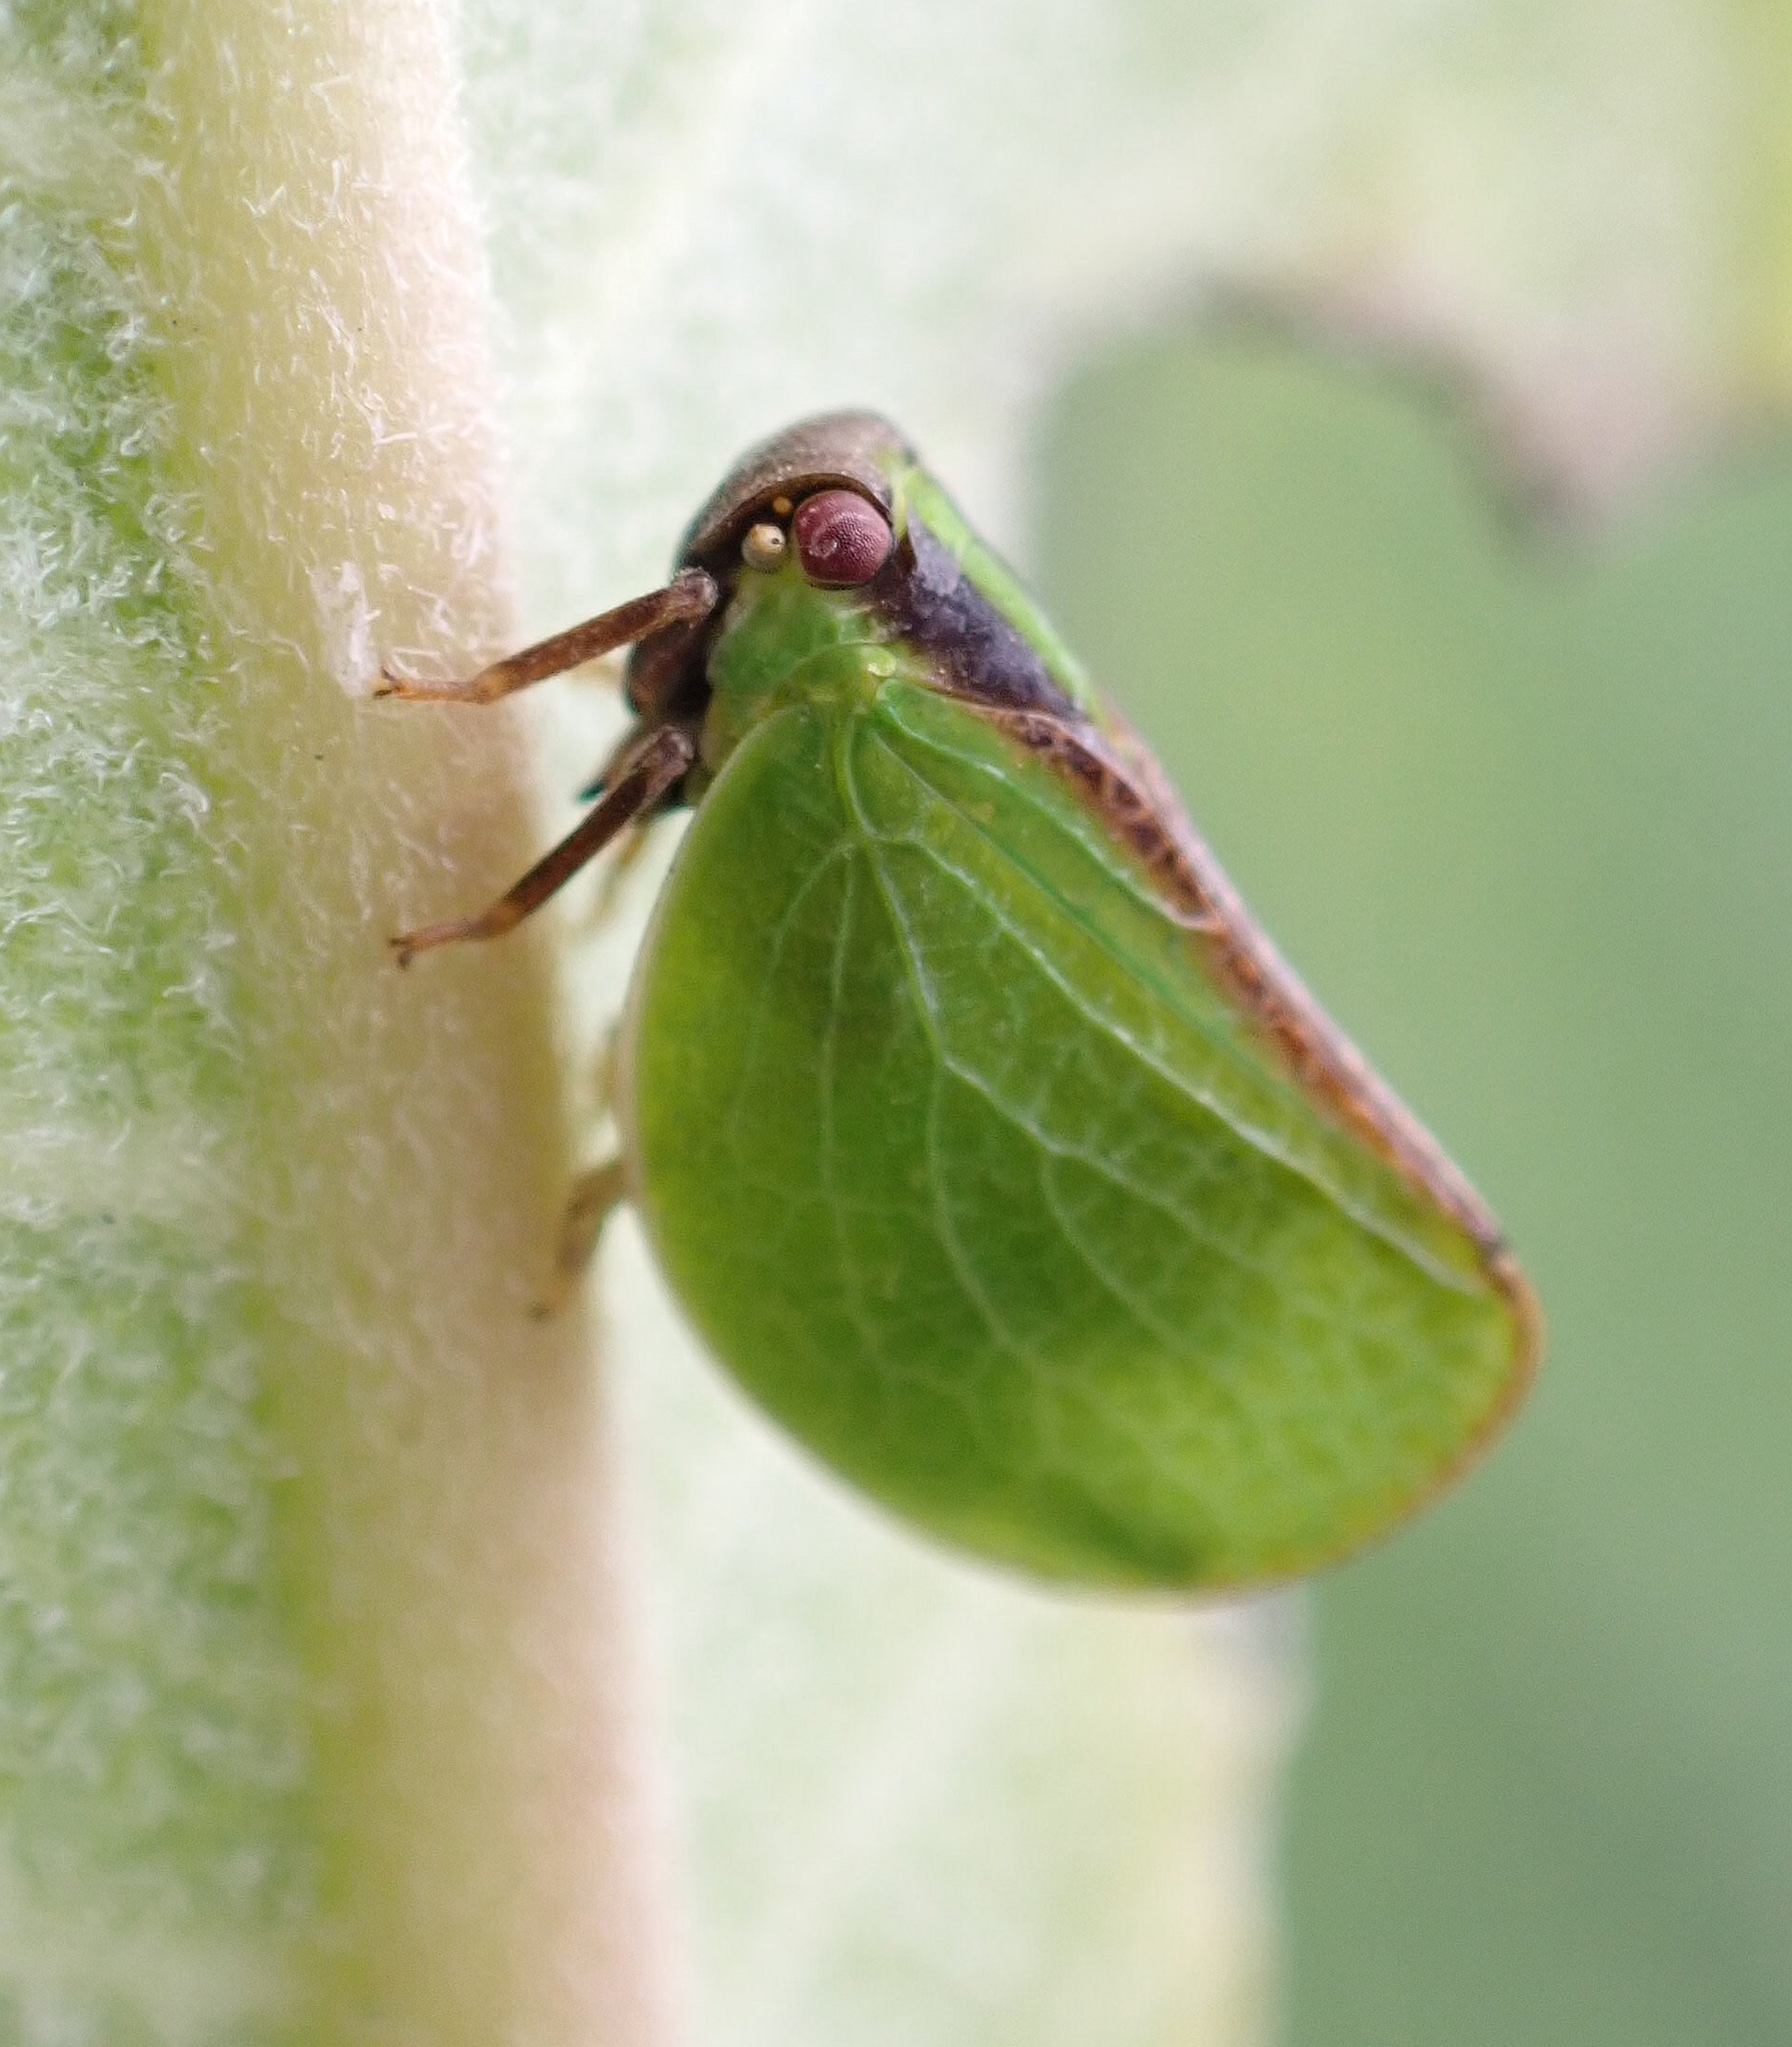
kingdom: Animalia
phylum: Arthropoda
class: Insecta
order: Hemiptera
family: Acanaloniidae
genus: Acanalonia
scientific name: Acanalonia bivittata
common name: Two-striped planthopper
